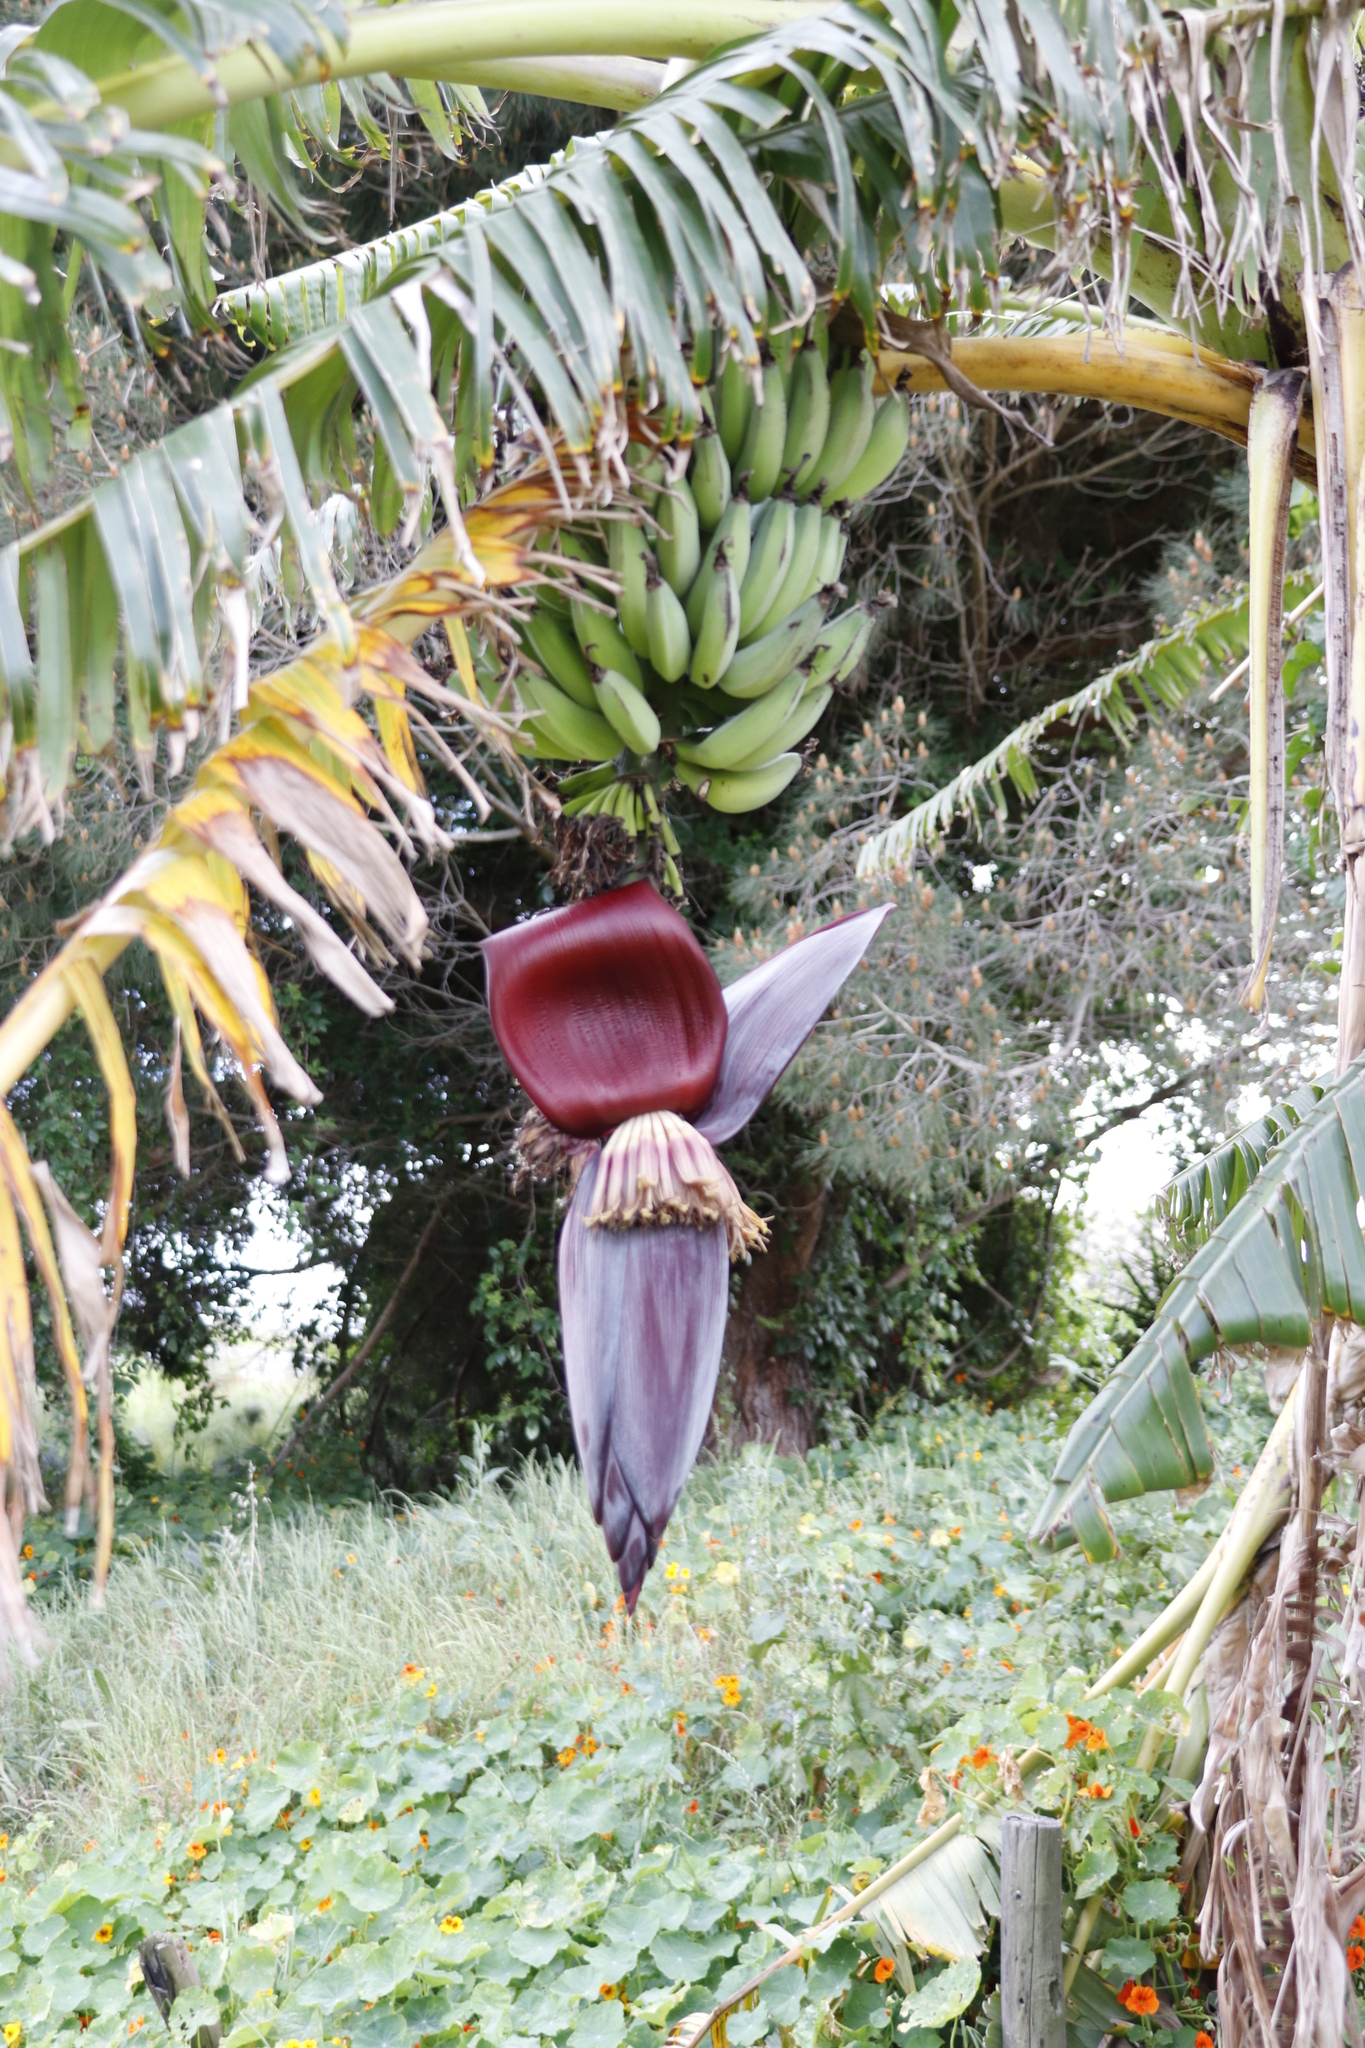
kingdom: Plantae
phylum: Tracheophyta
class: Liliopsida
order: Zingiberales
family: Musaceae
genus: Musa
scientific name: Musa paradisiaca
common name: French plantain
